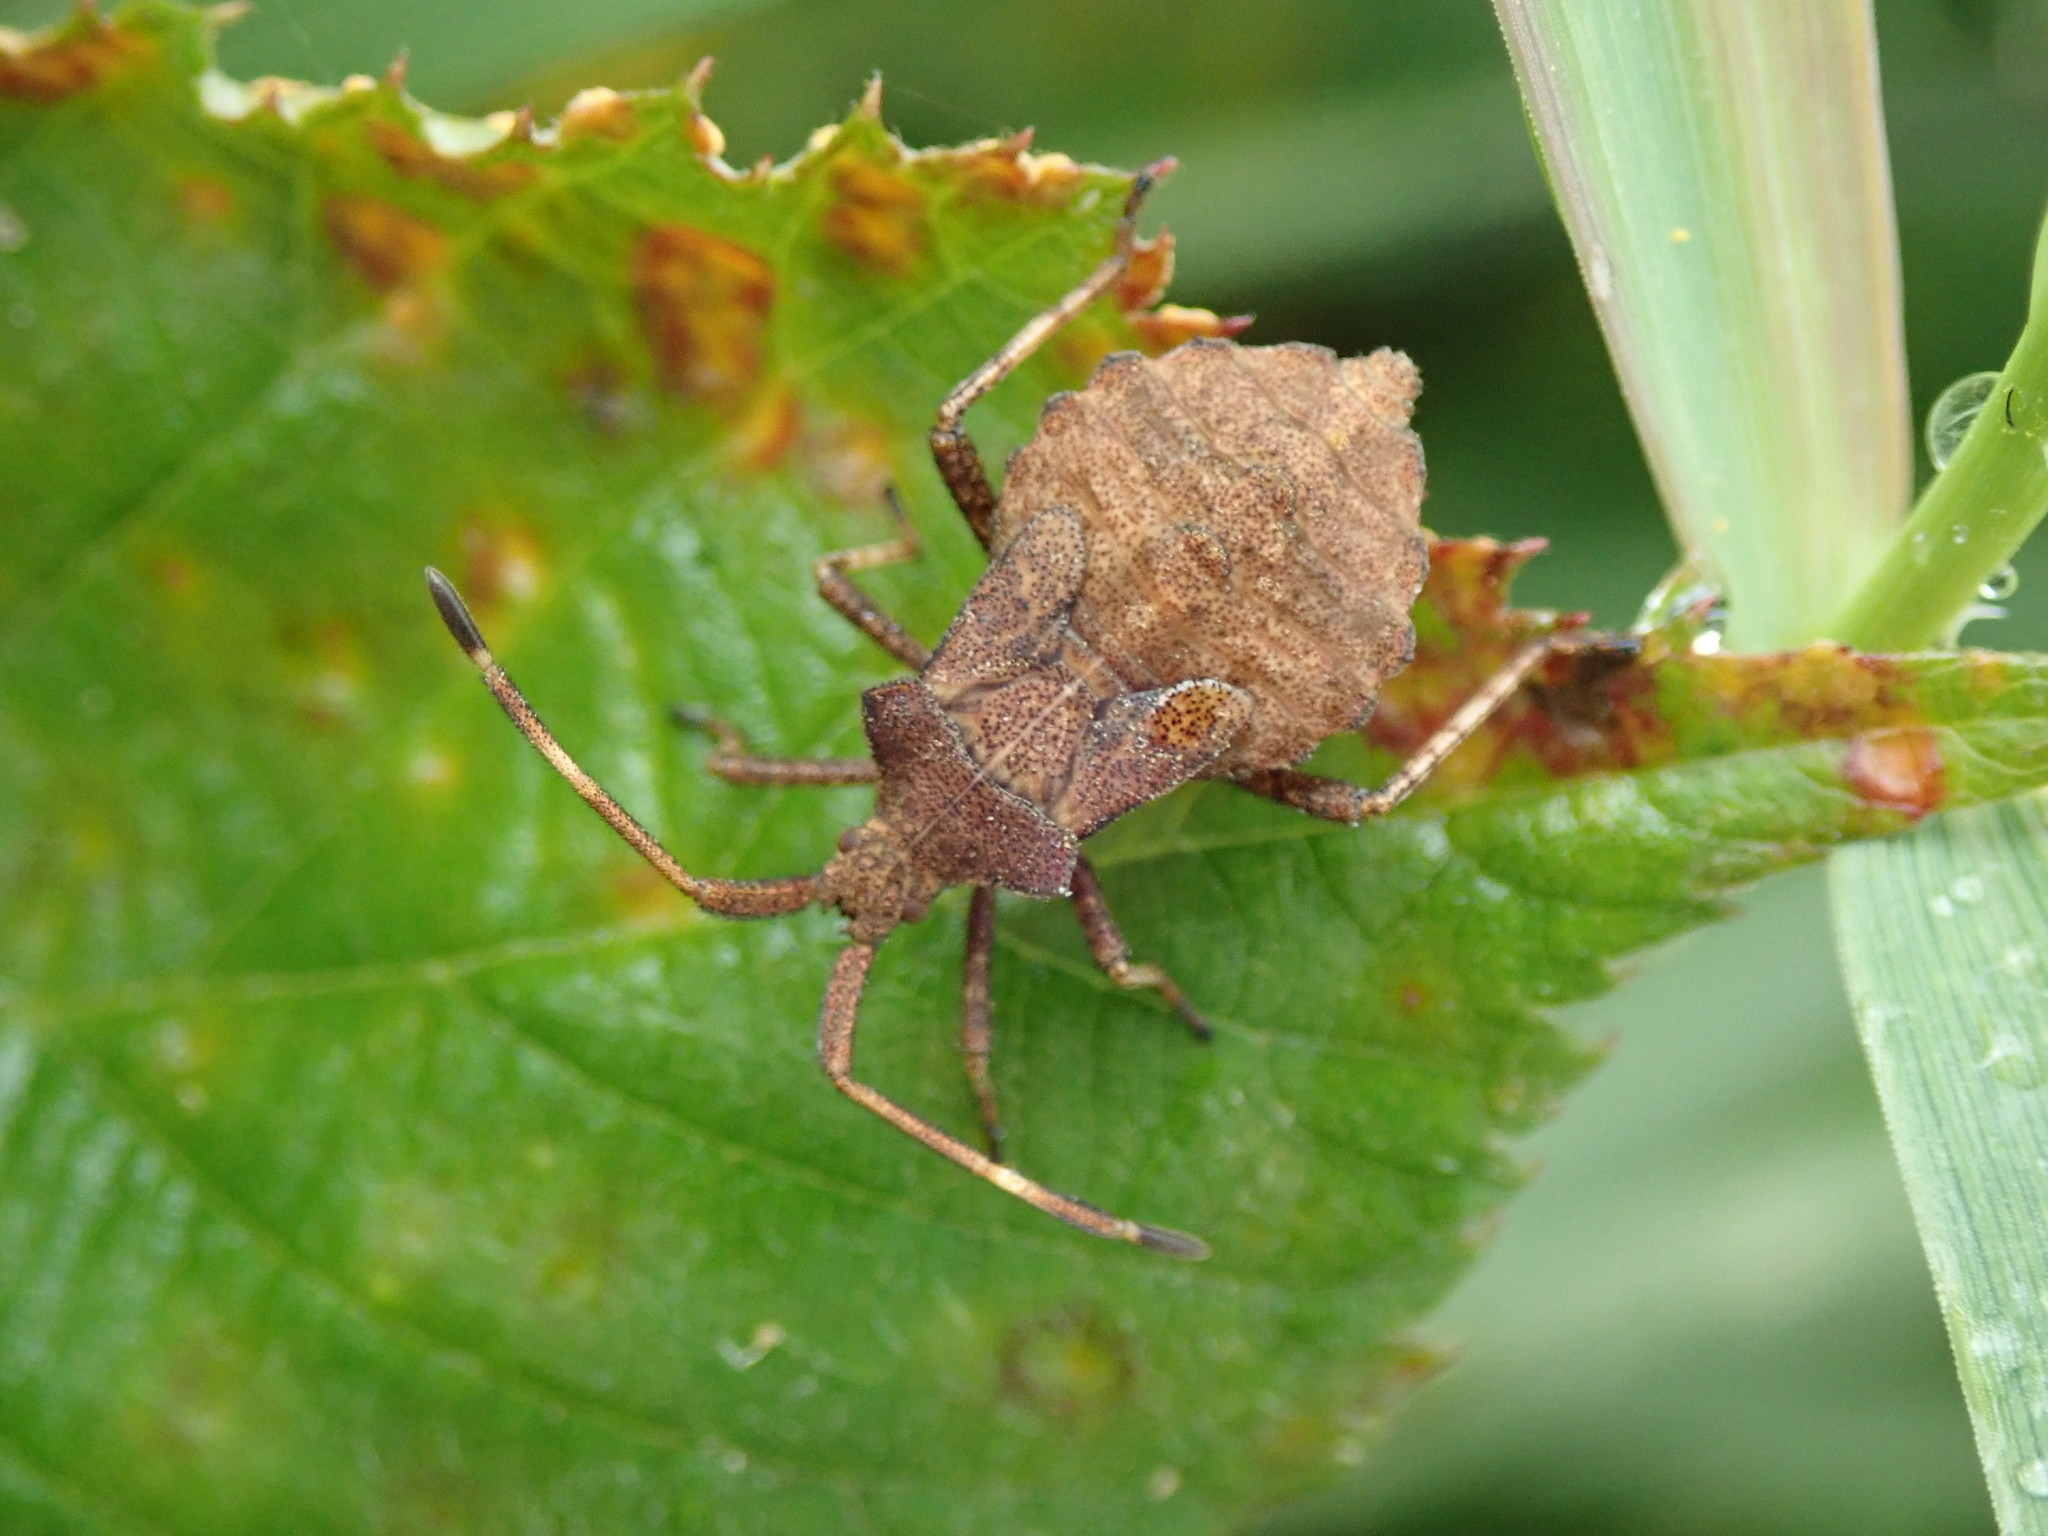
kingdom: Animalia
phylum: Arthropoda
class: Insecta
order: Hemiptera
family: Coreidae
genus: Coreus
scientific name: Coreus marginatus
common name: Dock bug
